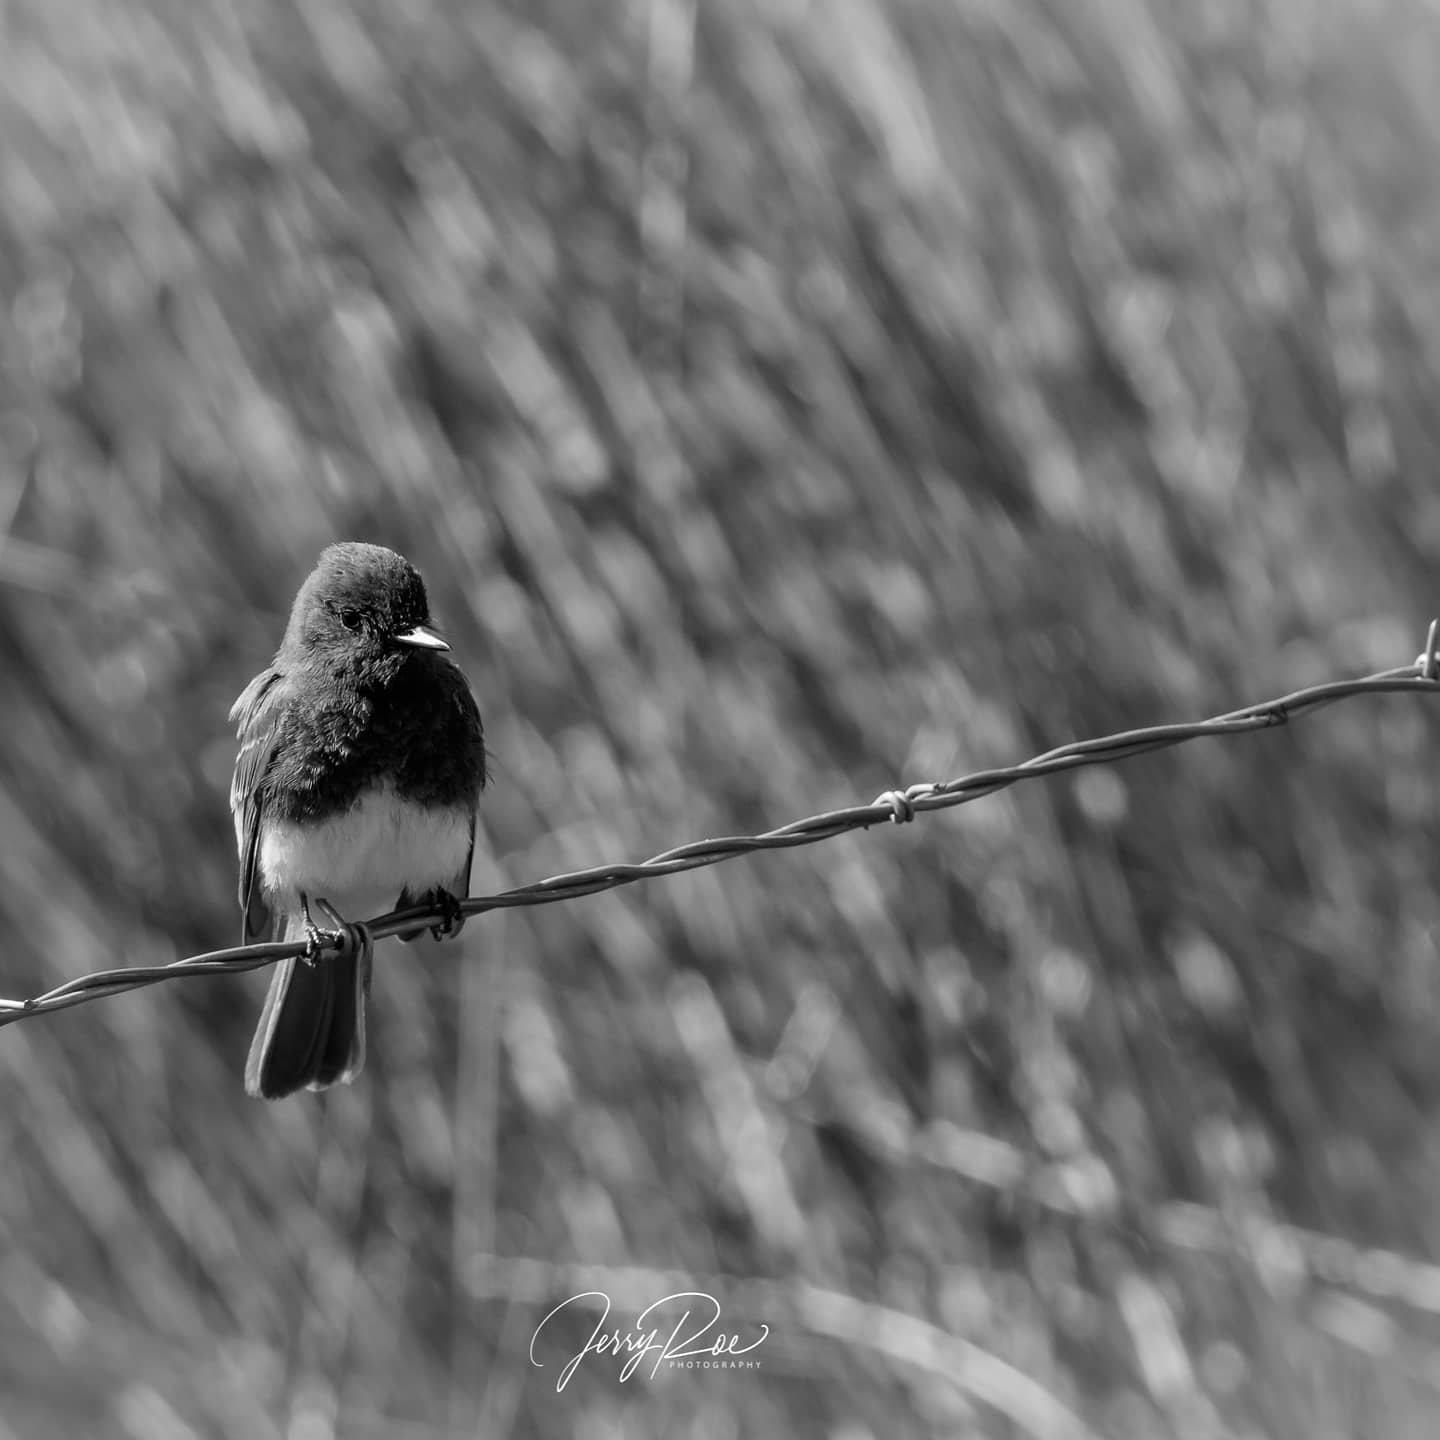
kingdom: Animalia
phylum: Chordata
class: Aves
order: Passeriformes
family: Tyrannidae
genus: Sayornis
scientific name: Sayornis nigricans
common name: Black phoebe
